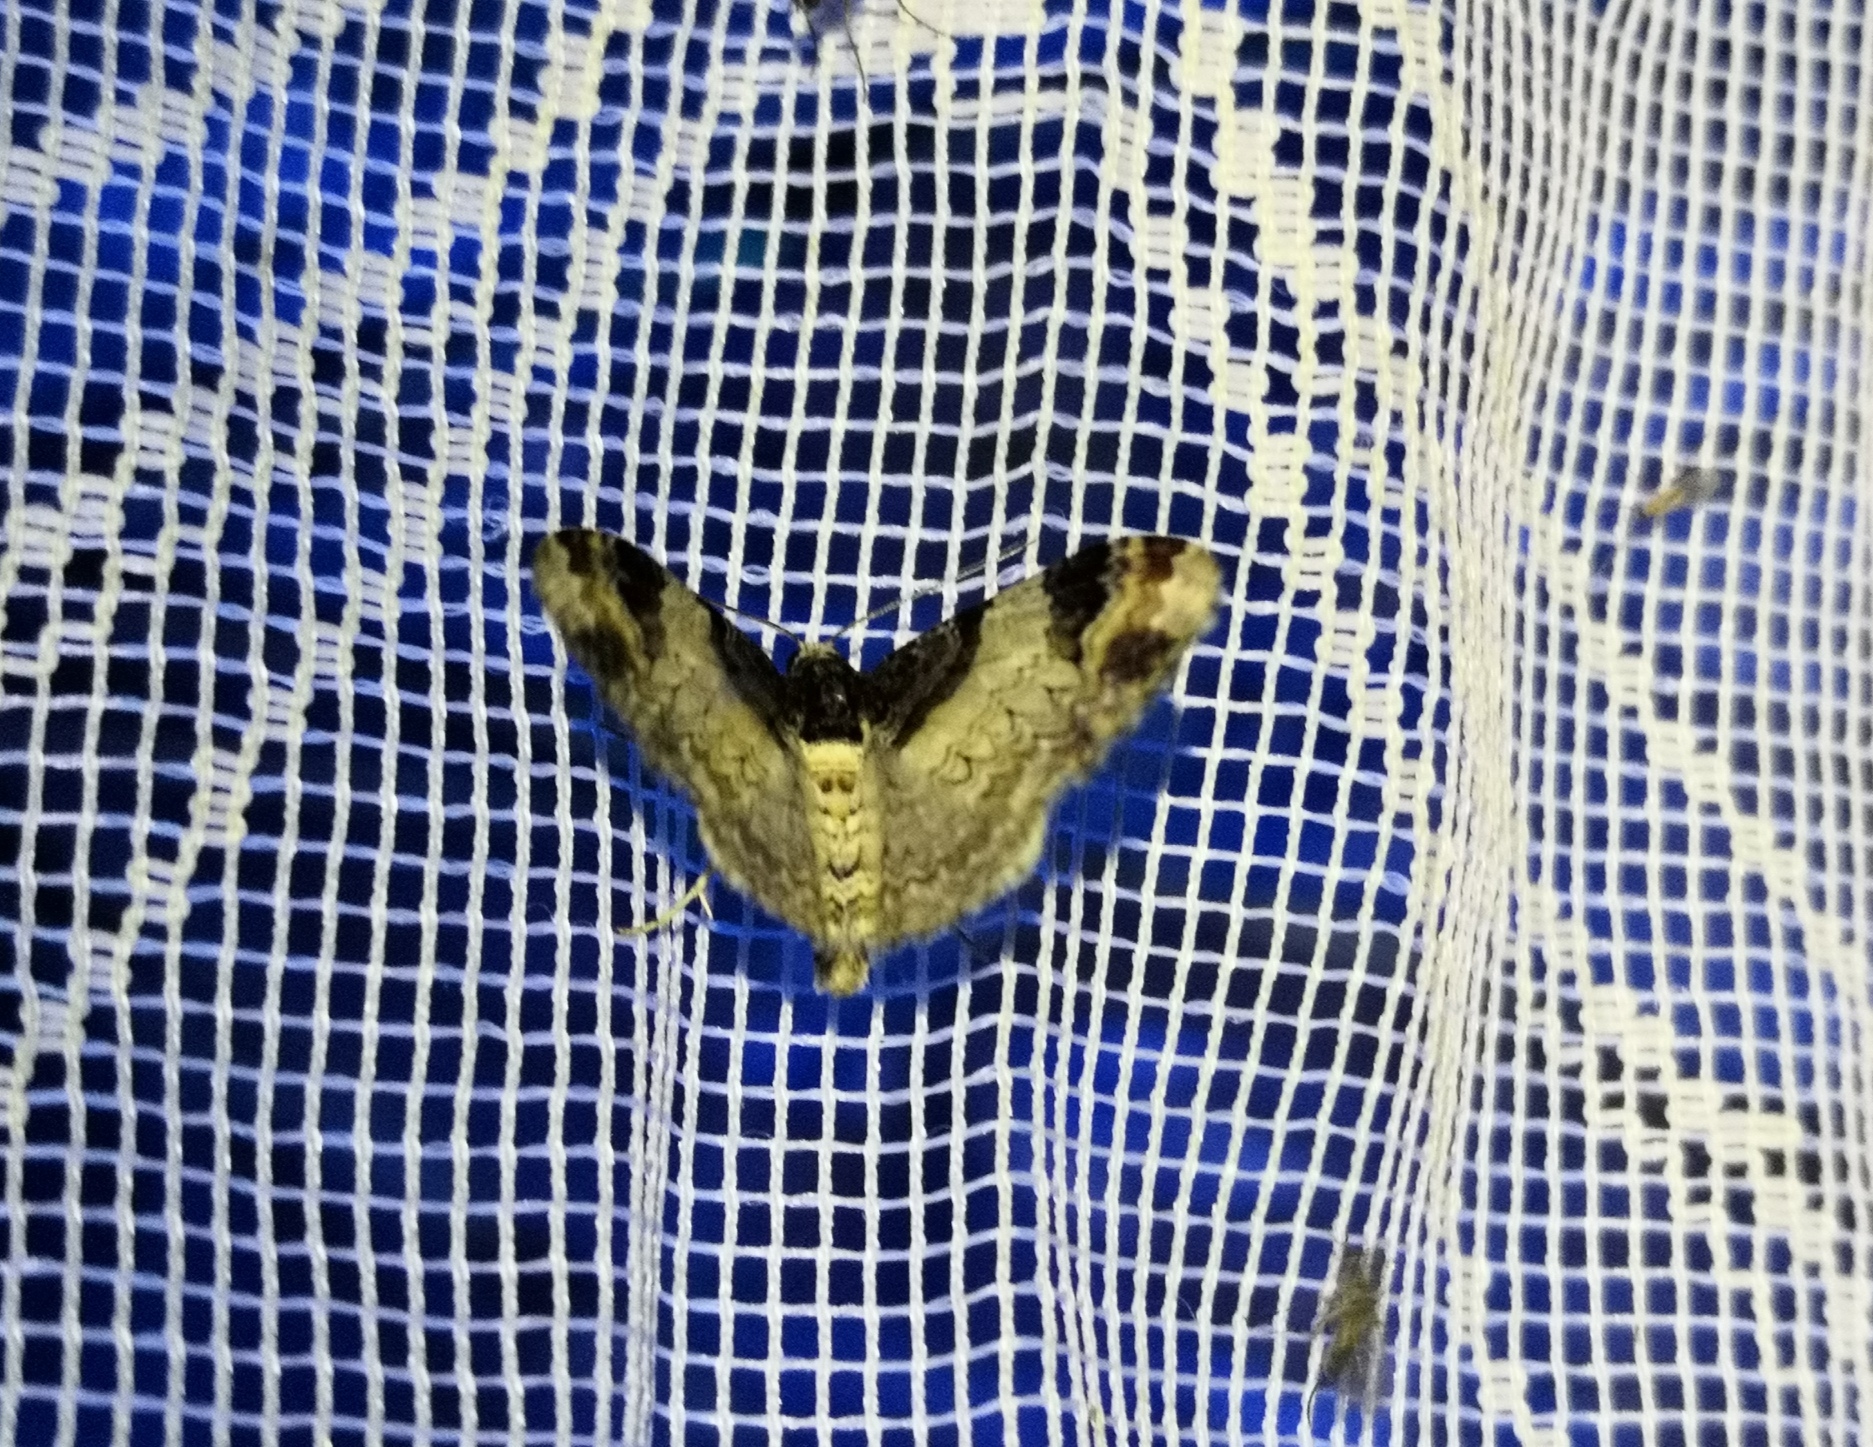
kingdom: Animalia
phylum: Arthropoda
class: Insecta
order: Lepidoptera
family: Geometridae
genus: Catarhoe
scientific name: Catarhoe cuculata
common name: Royal mantle
